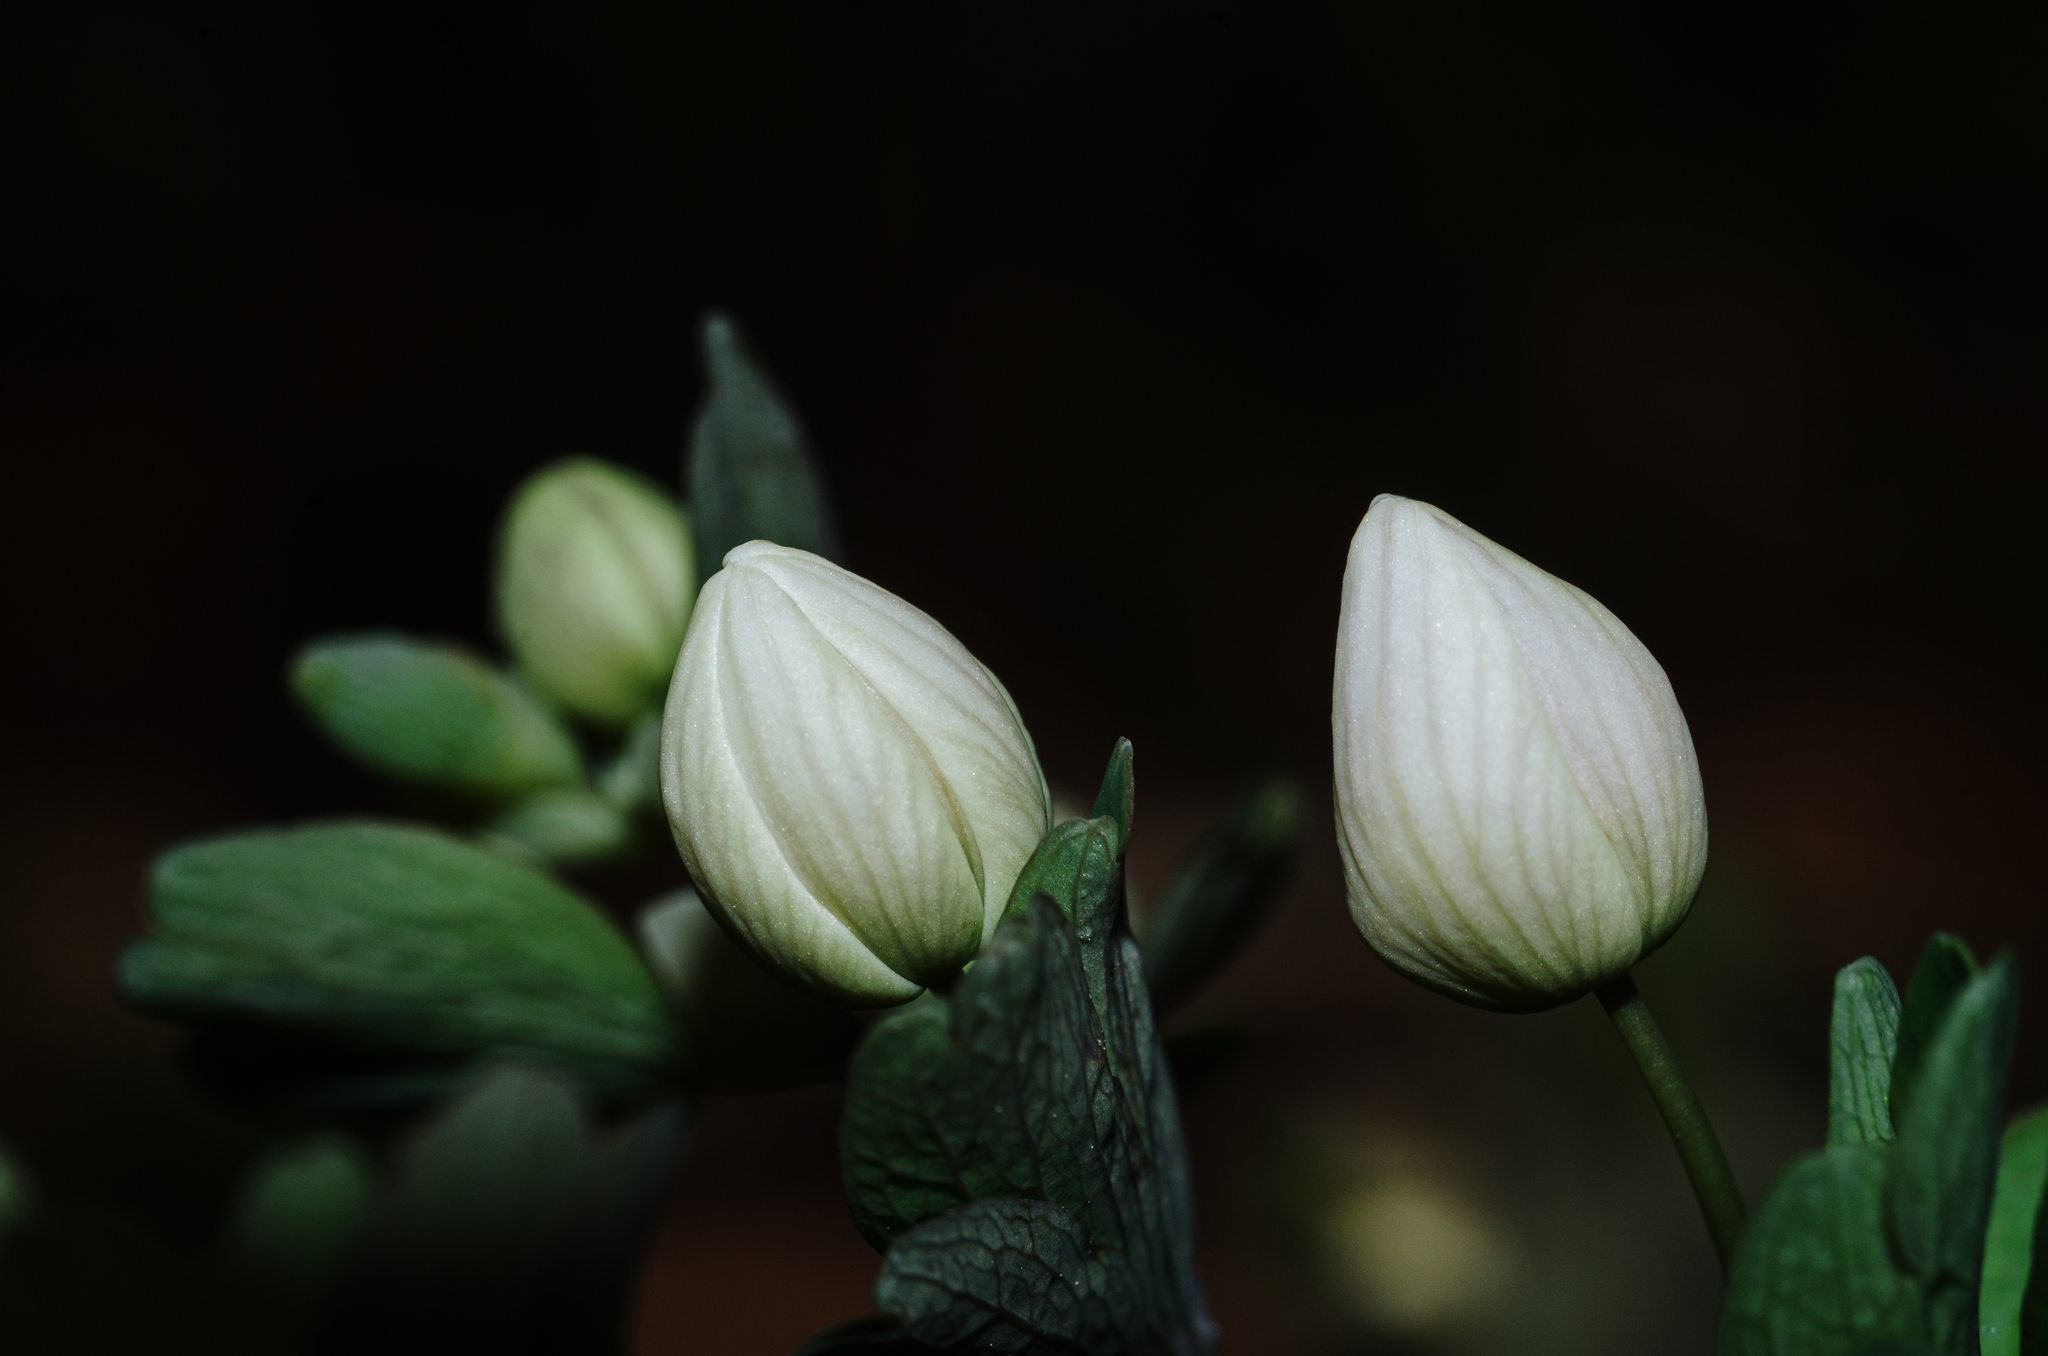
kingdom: Plantae
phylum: Tracheophyta
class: Magnoliopsida
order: Ranunculales
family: Ranunculaceae
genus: Isopyrum
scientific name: Isopyrum thalictroides
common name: Isopyrum
